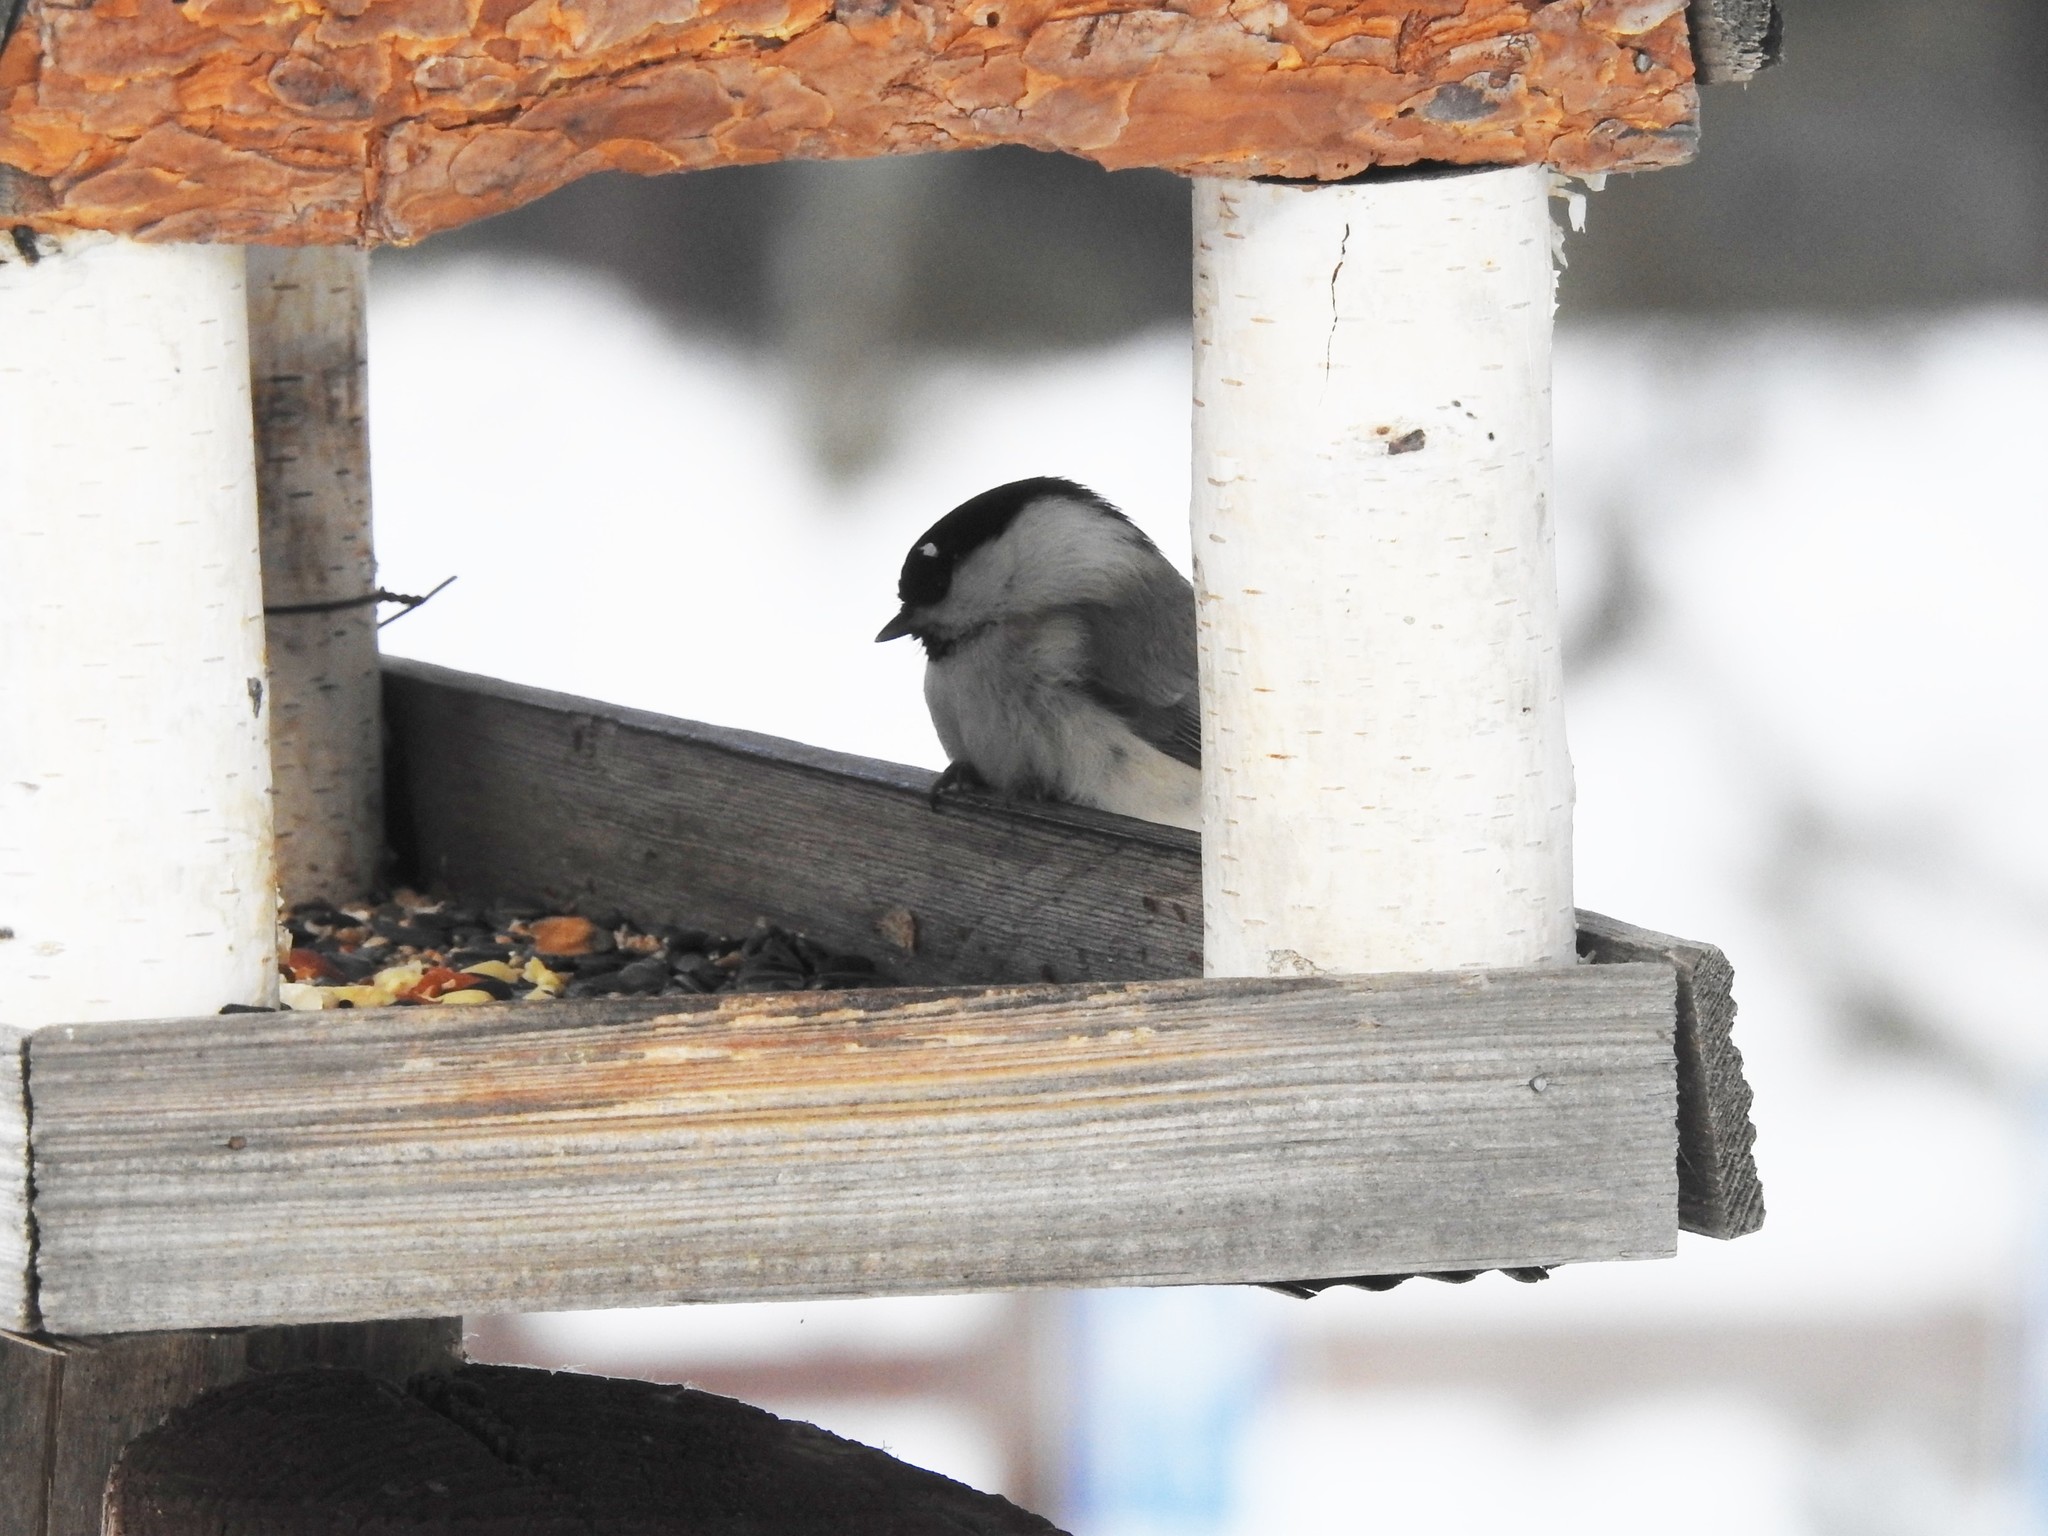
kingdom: Animalia
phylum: Chordata
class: Aves
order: Passeriformes
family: Paridae
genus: Poecile
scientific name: Poecile montanus
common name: Willow tit
